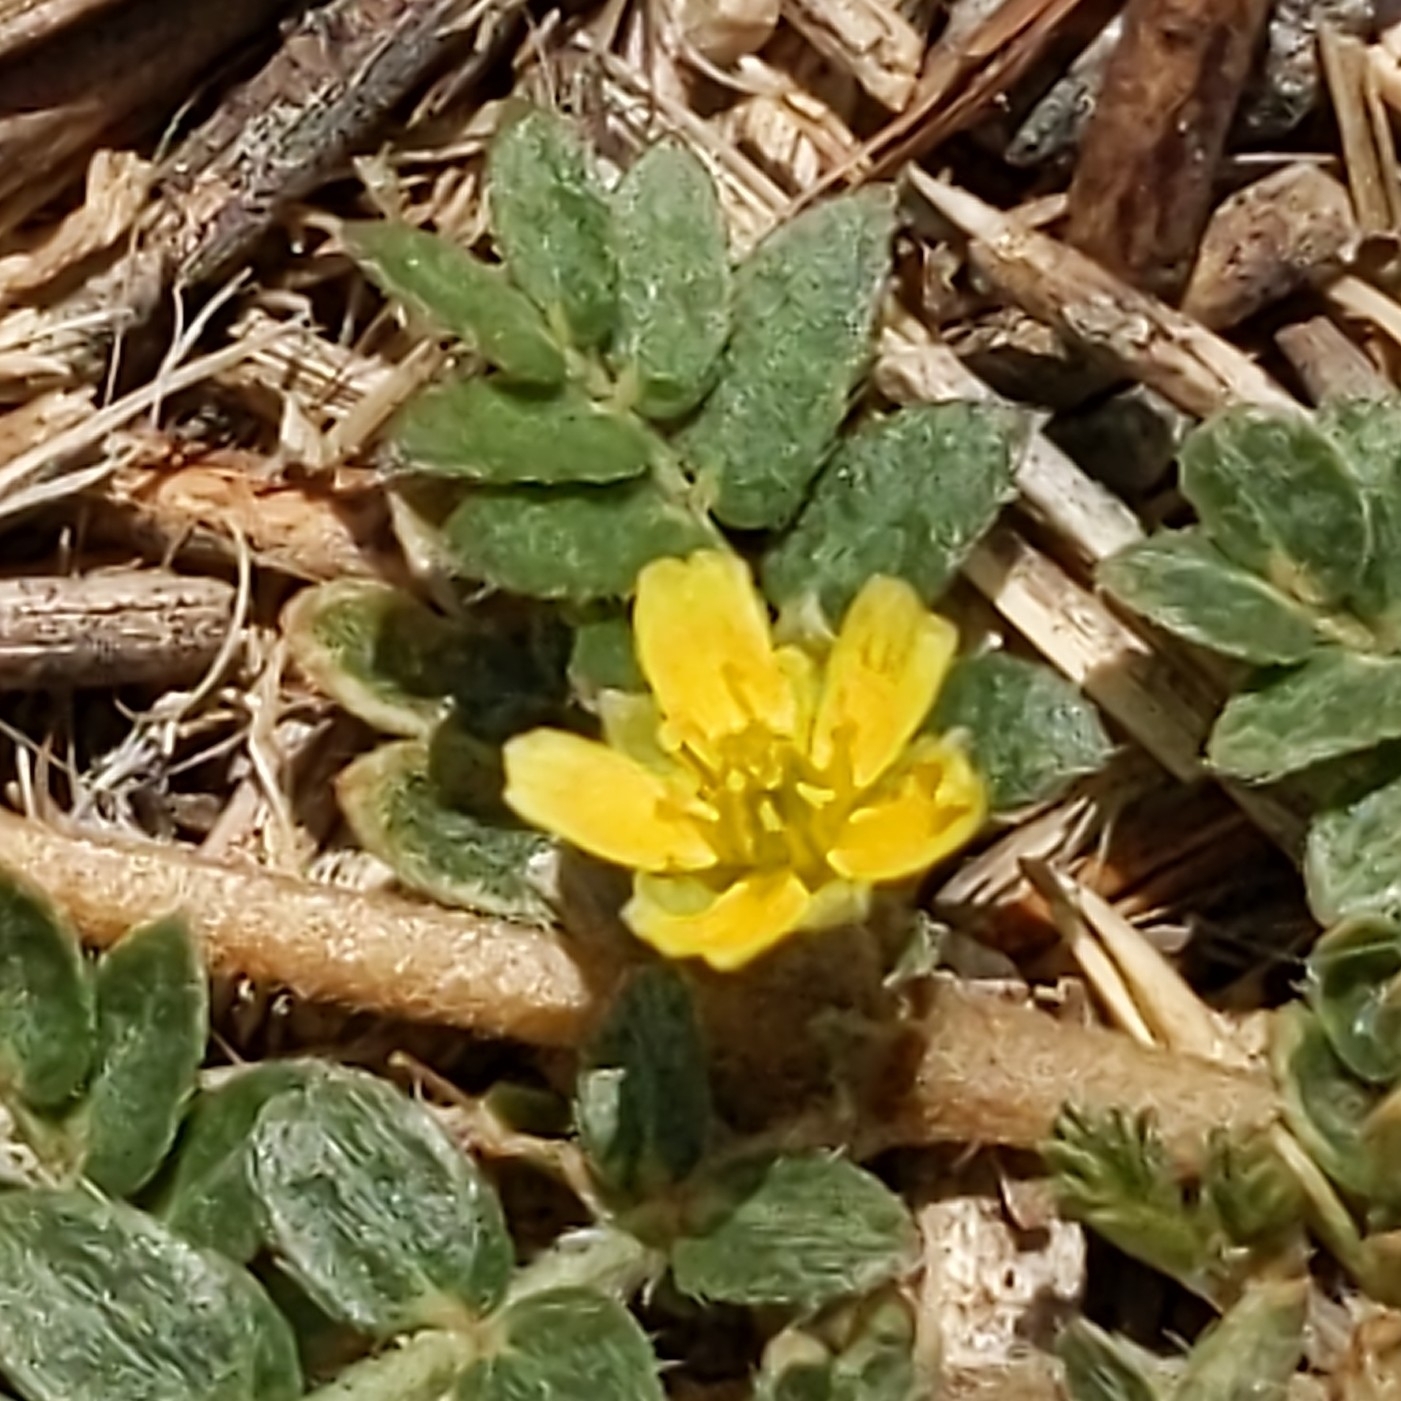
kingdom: Plantae
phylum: Tracheophyta
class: Magnoliopsida
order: Zygophyllales
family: Zygophyllaceae
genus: Tribulus
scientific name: Tribulus terrestris
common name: Puncturevine
